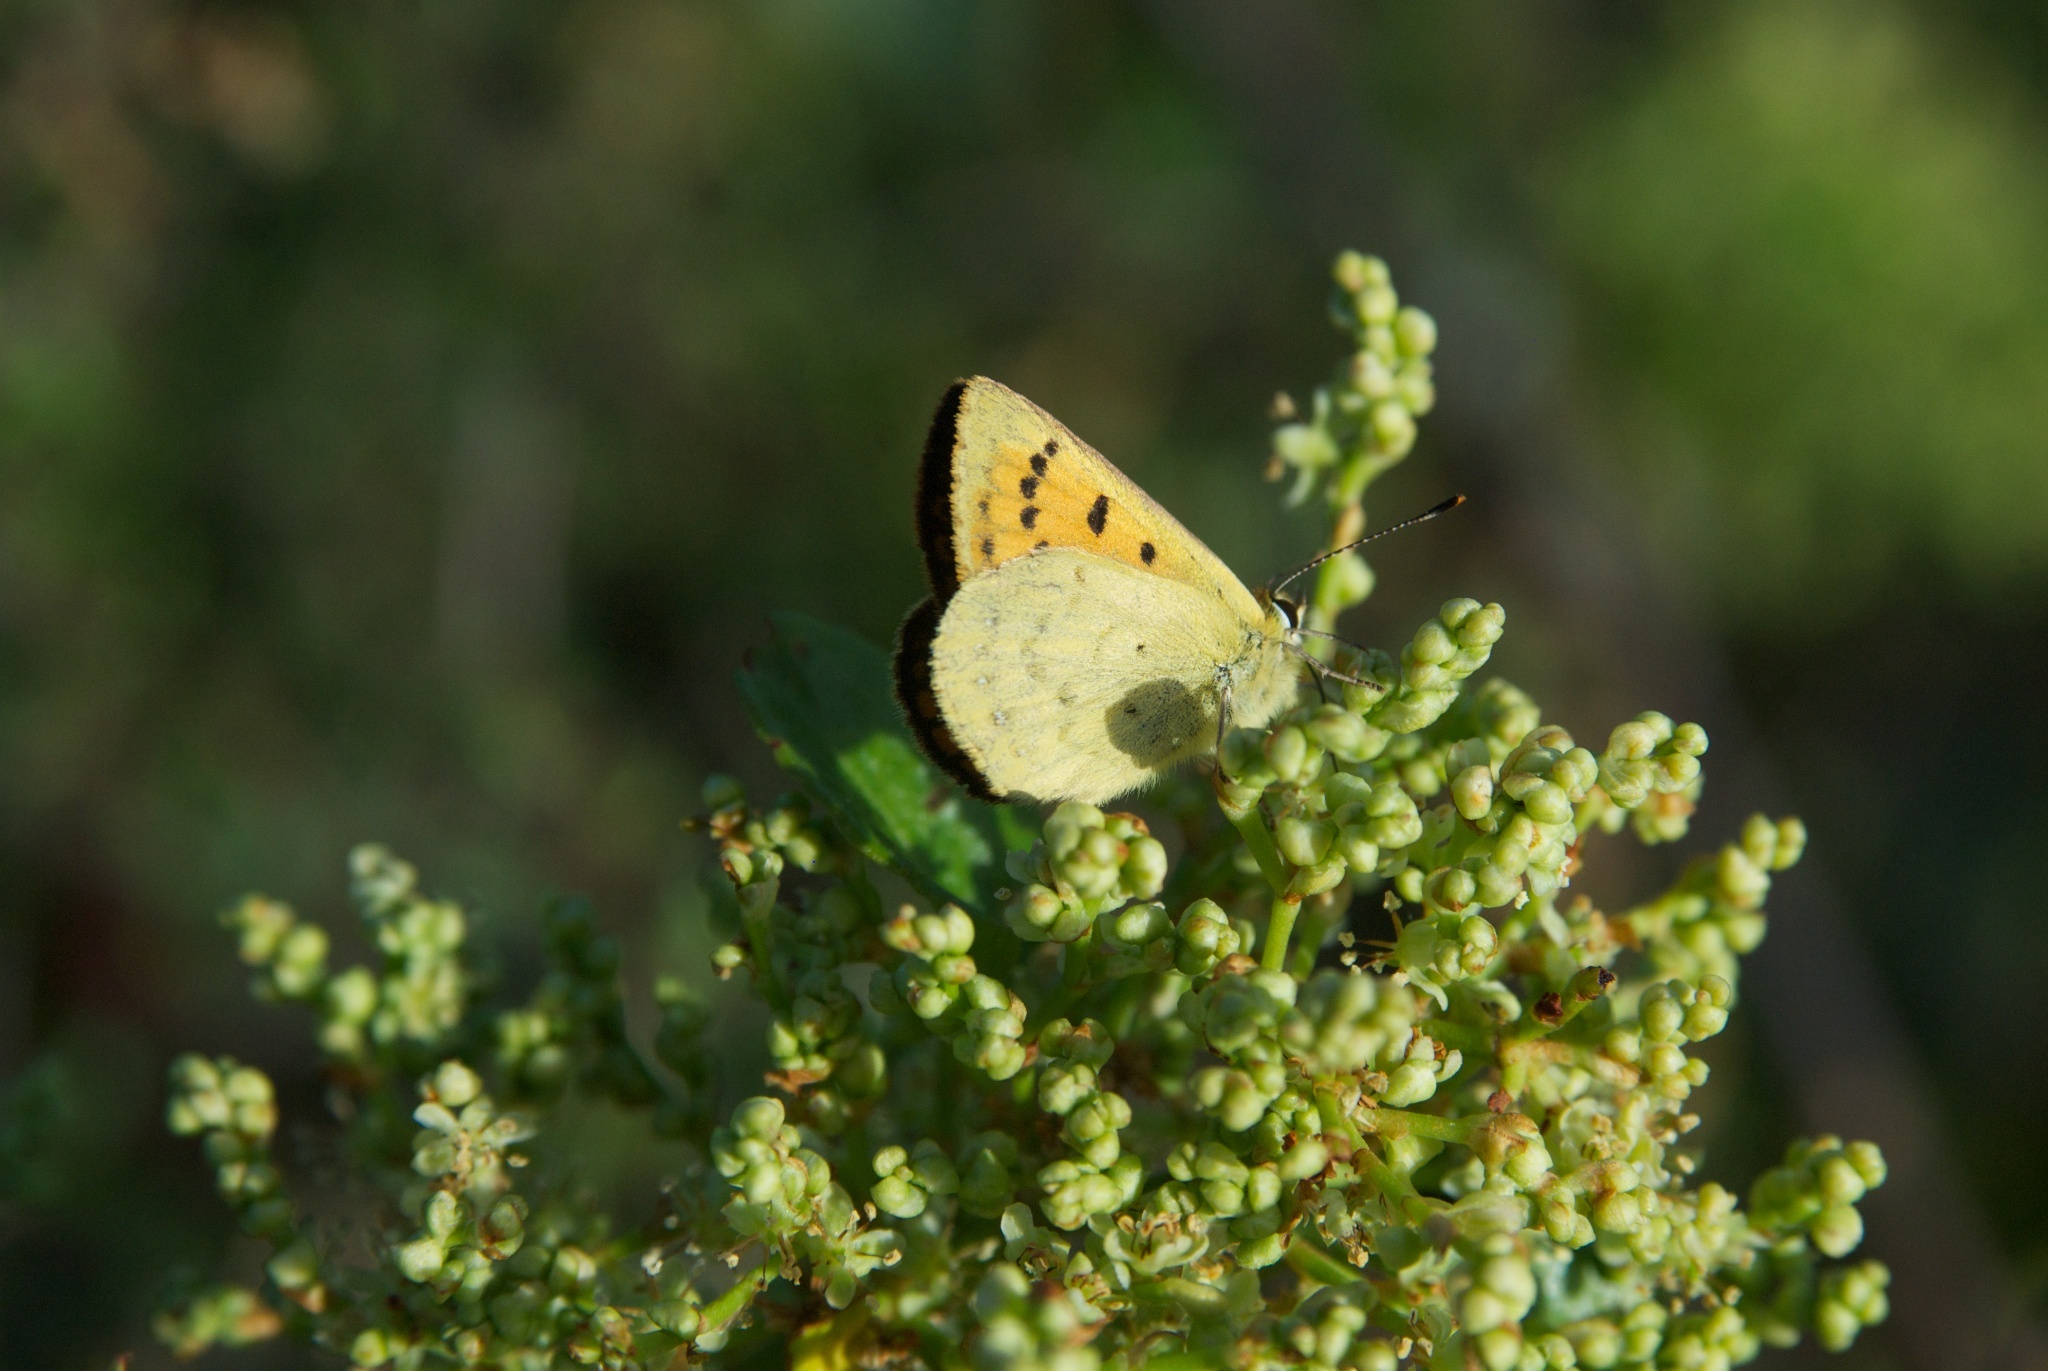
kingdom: Animalia
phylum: Arthropoda
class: Insecta
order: Lepidoptera
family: Lycaenidae
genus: Lycaena
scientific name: Lycaena salustius
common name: North island coastal copper
